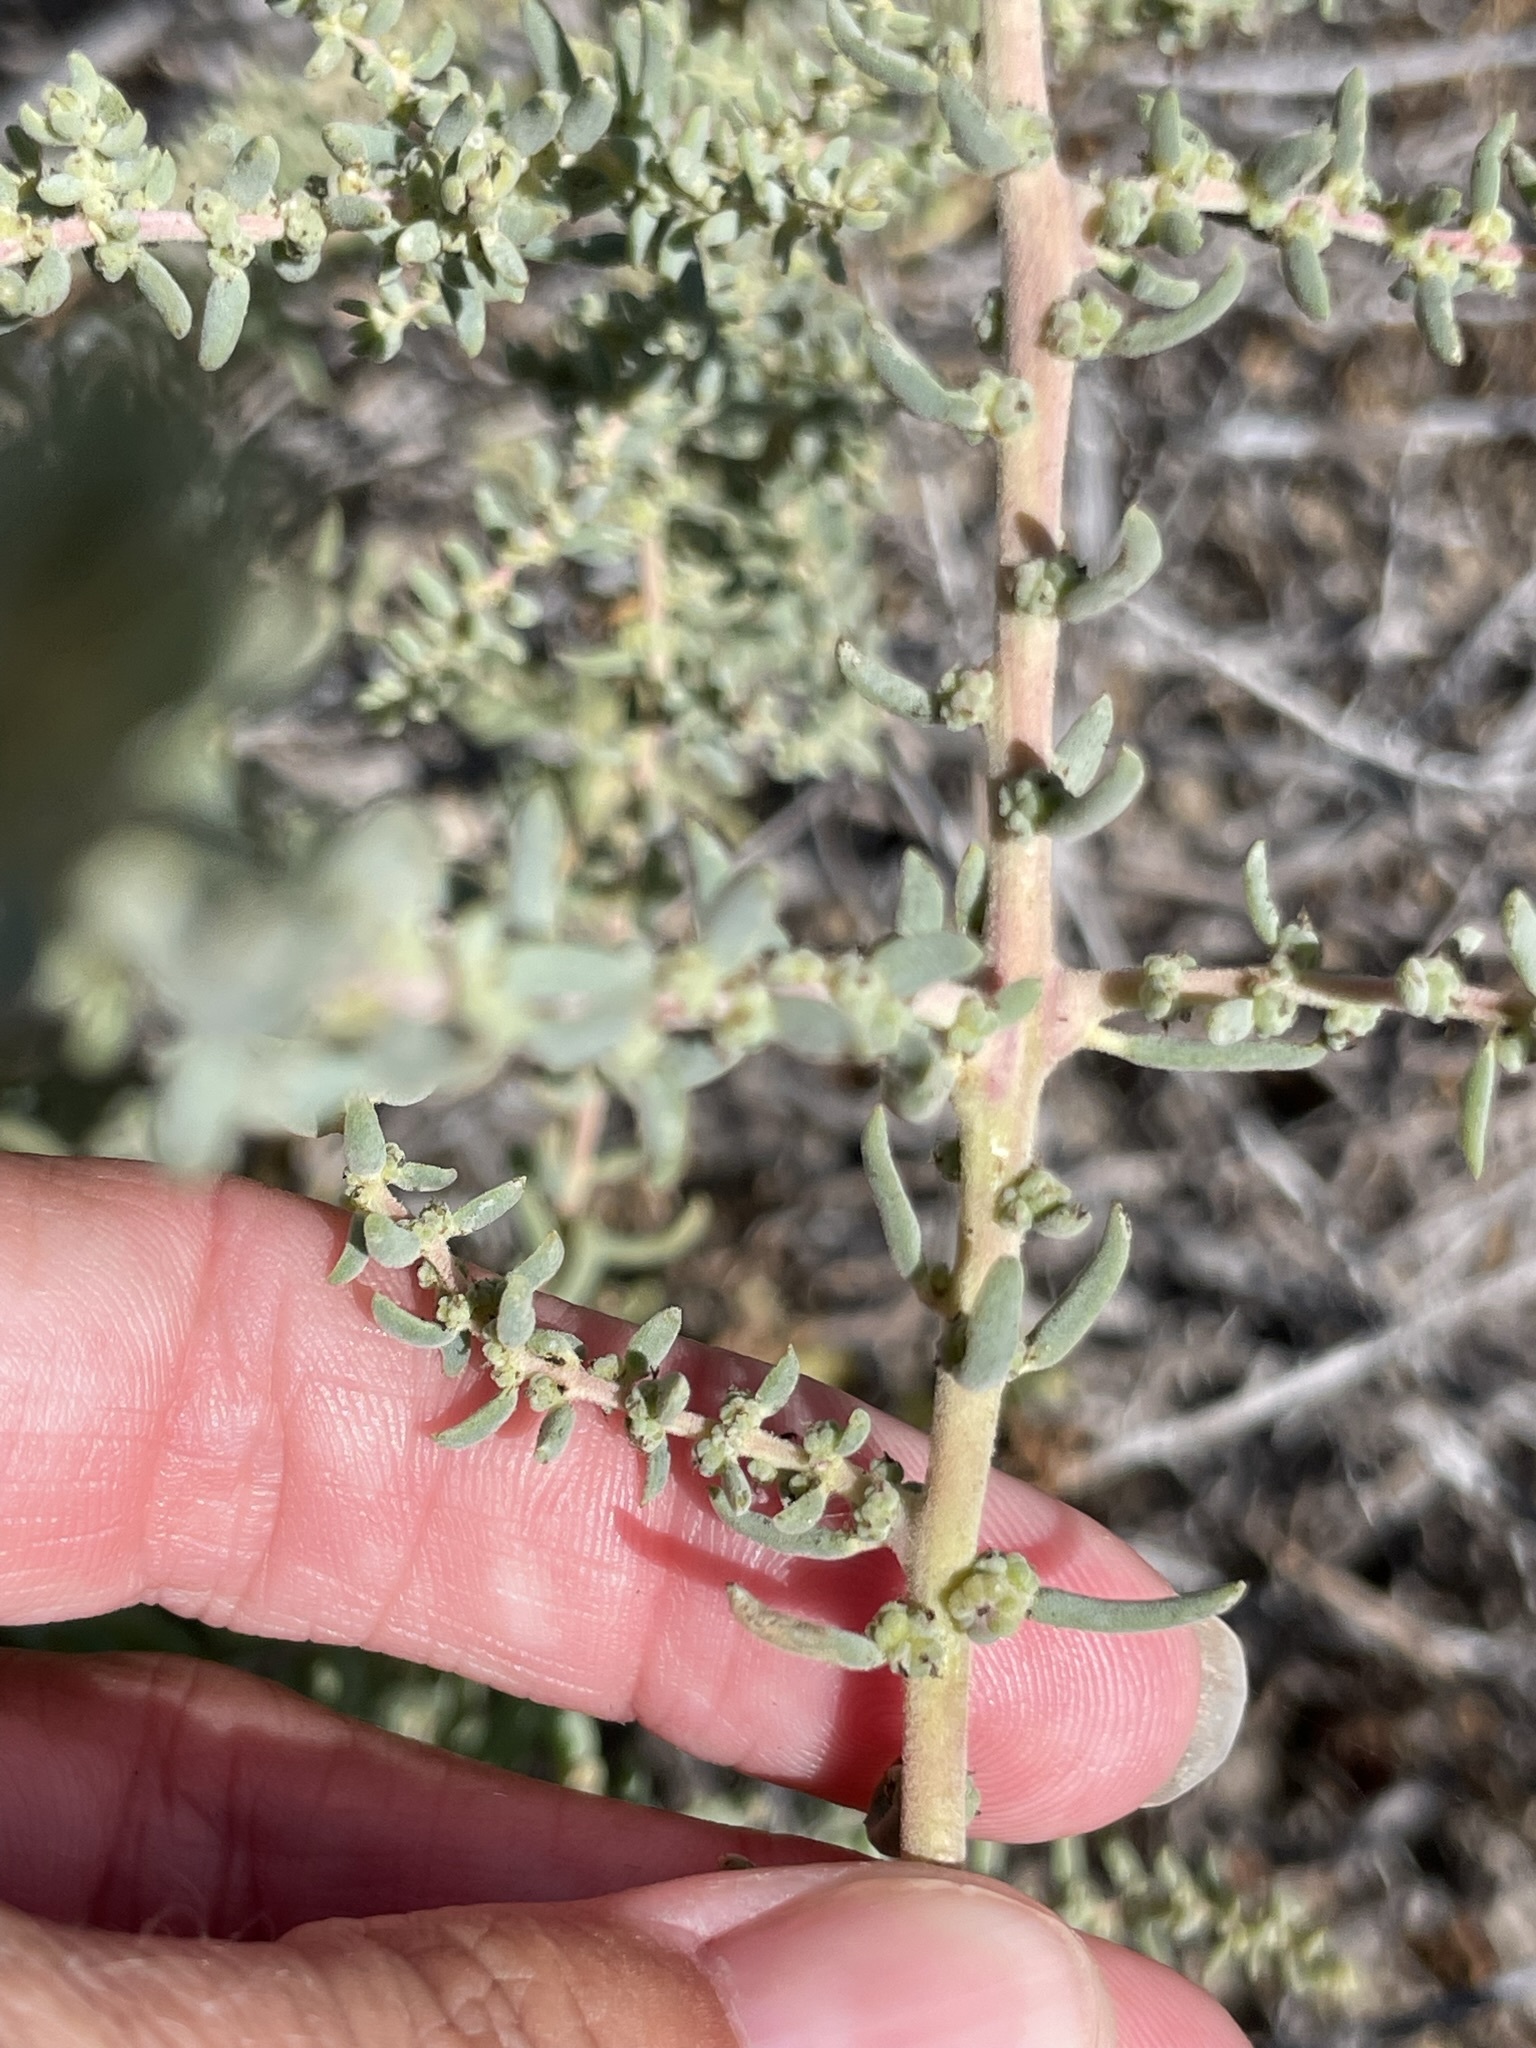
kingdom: Plantae
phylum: Tracheophyta
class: Magnoliopsida
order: Caryophyllales
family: Amaranthaceae
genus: Suaeda
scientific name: Suaeda nigra
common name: Bush seepweed
